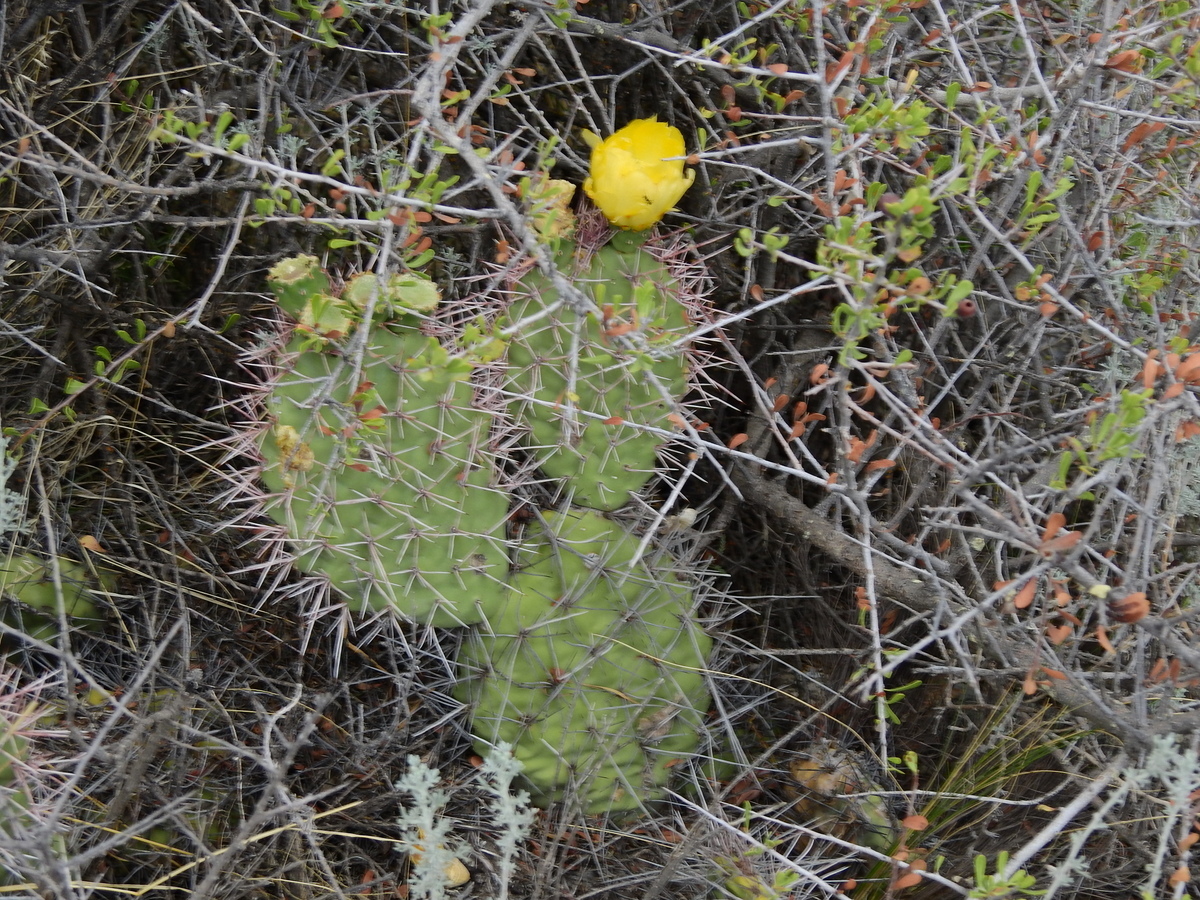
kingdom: Plantae
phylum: Tracheophyta
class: Magnoliopsida
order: Caryophyllales
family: Cactaceae
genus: Opuntia
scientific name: Opuntia sulphurea
